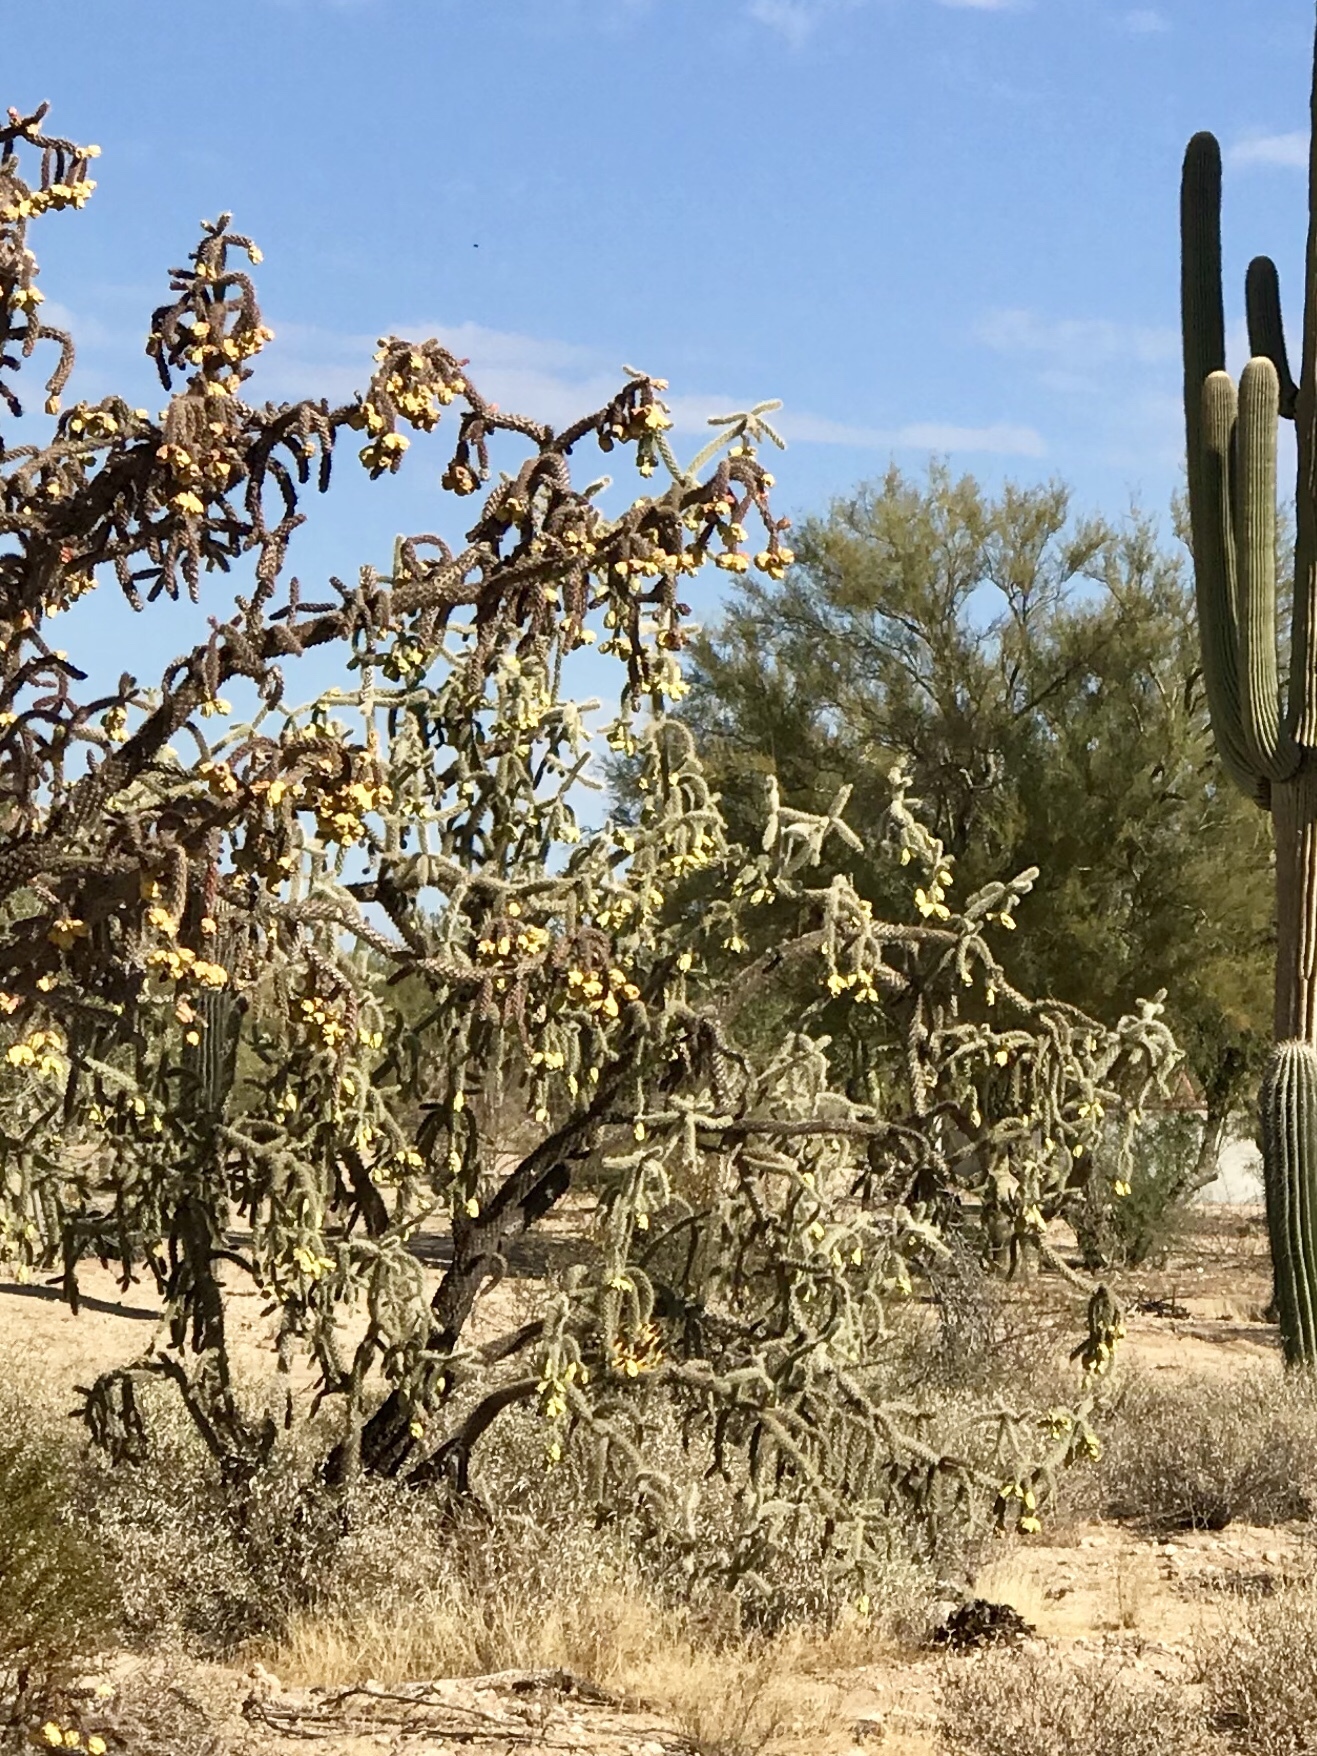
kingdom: Plantae
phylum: Tracheophyta
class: Magnoliopsida
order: Caryophyllales
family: Cactaceae
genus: Cylindropuntia
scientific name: Cylindropuntia imbricata
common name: Candelabrum cactus
